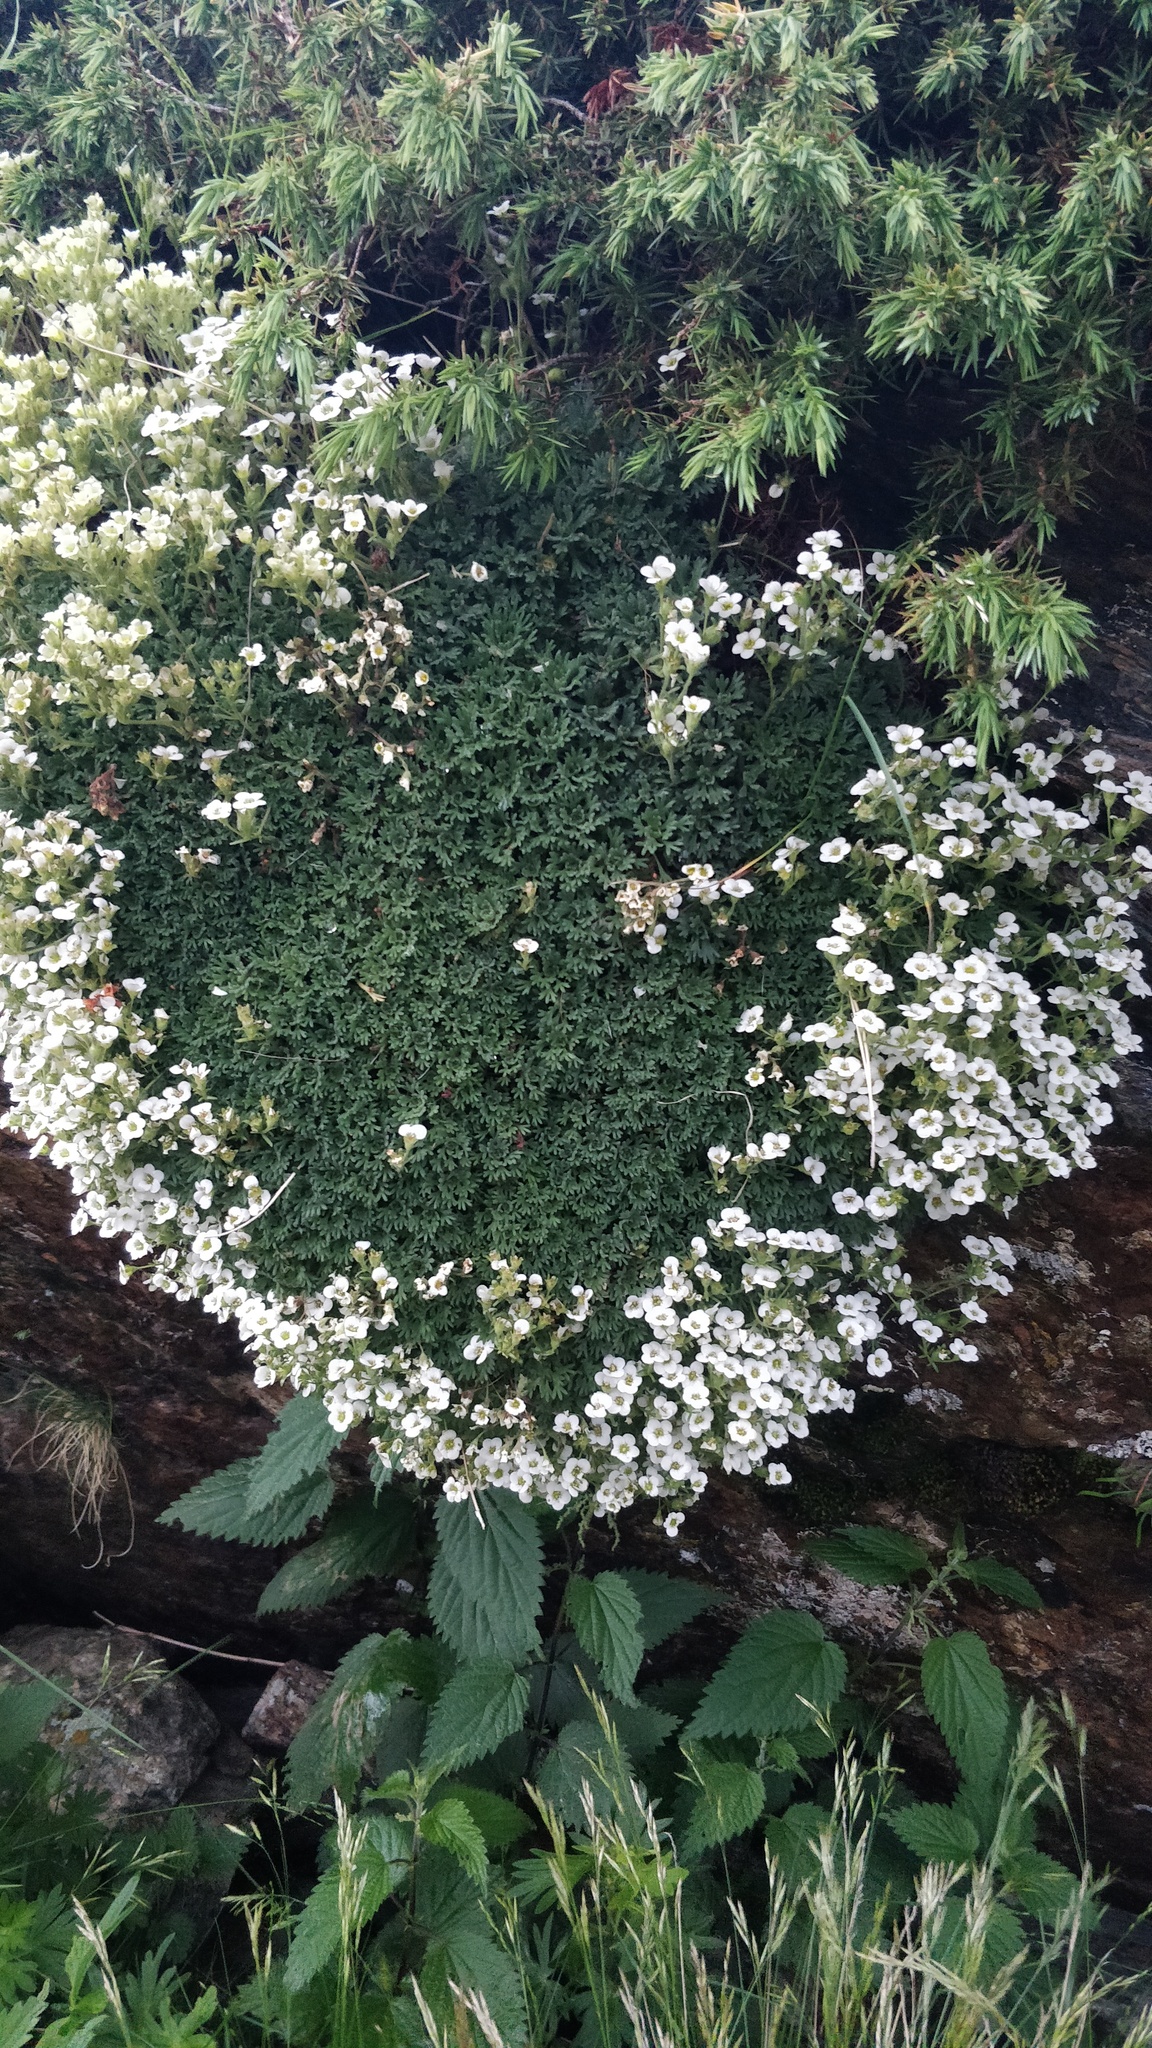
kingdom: Plantae
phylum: Tracheophyta
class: Magnoliopsida
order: Saxifragales
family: Saxifragaceae
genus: Saxifraga
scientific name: Saxifraga pubescens
